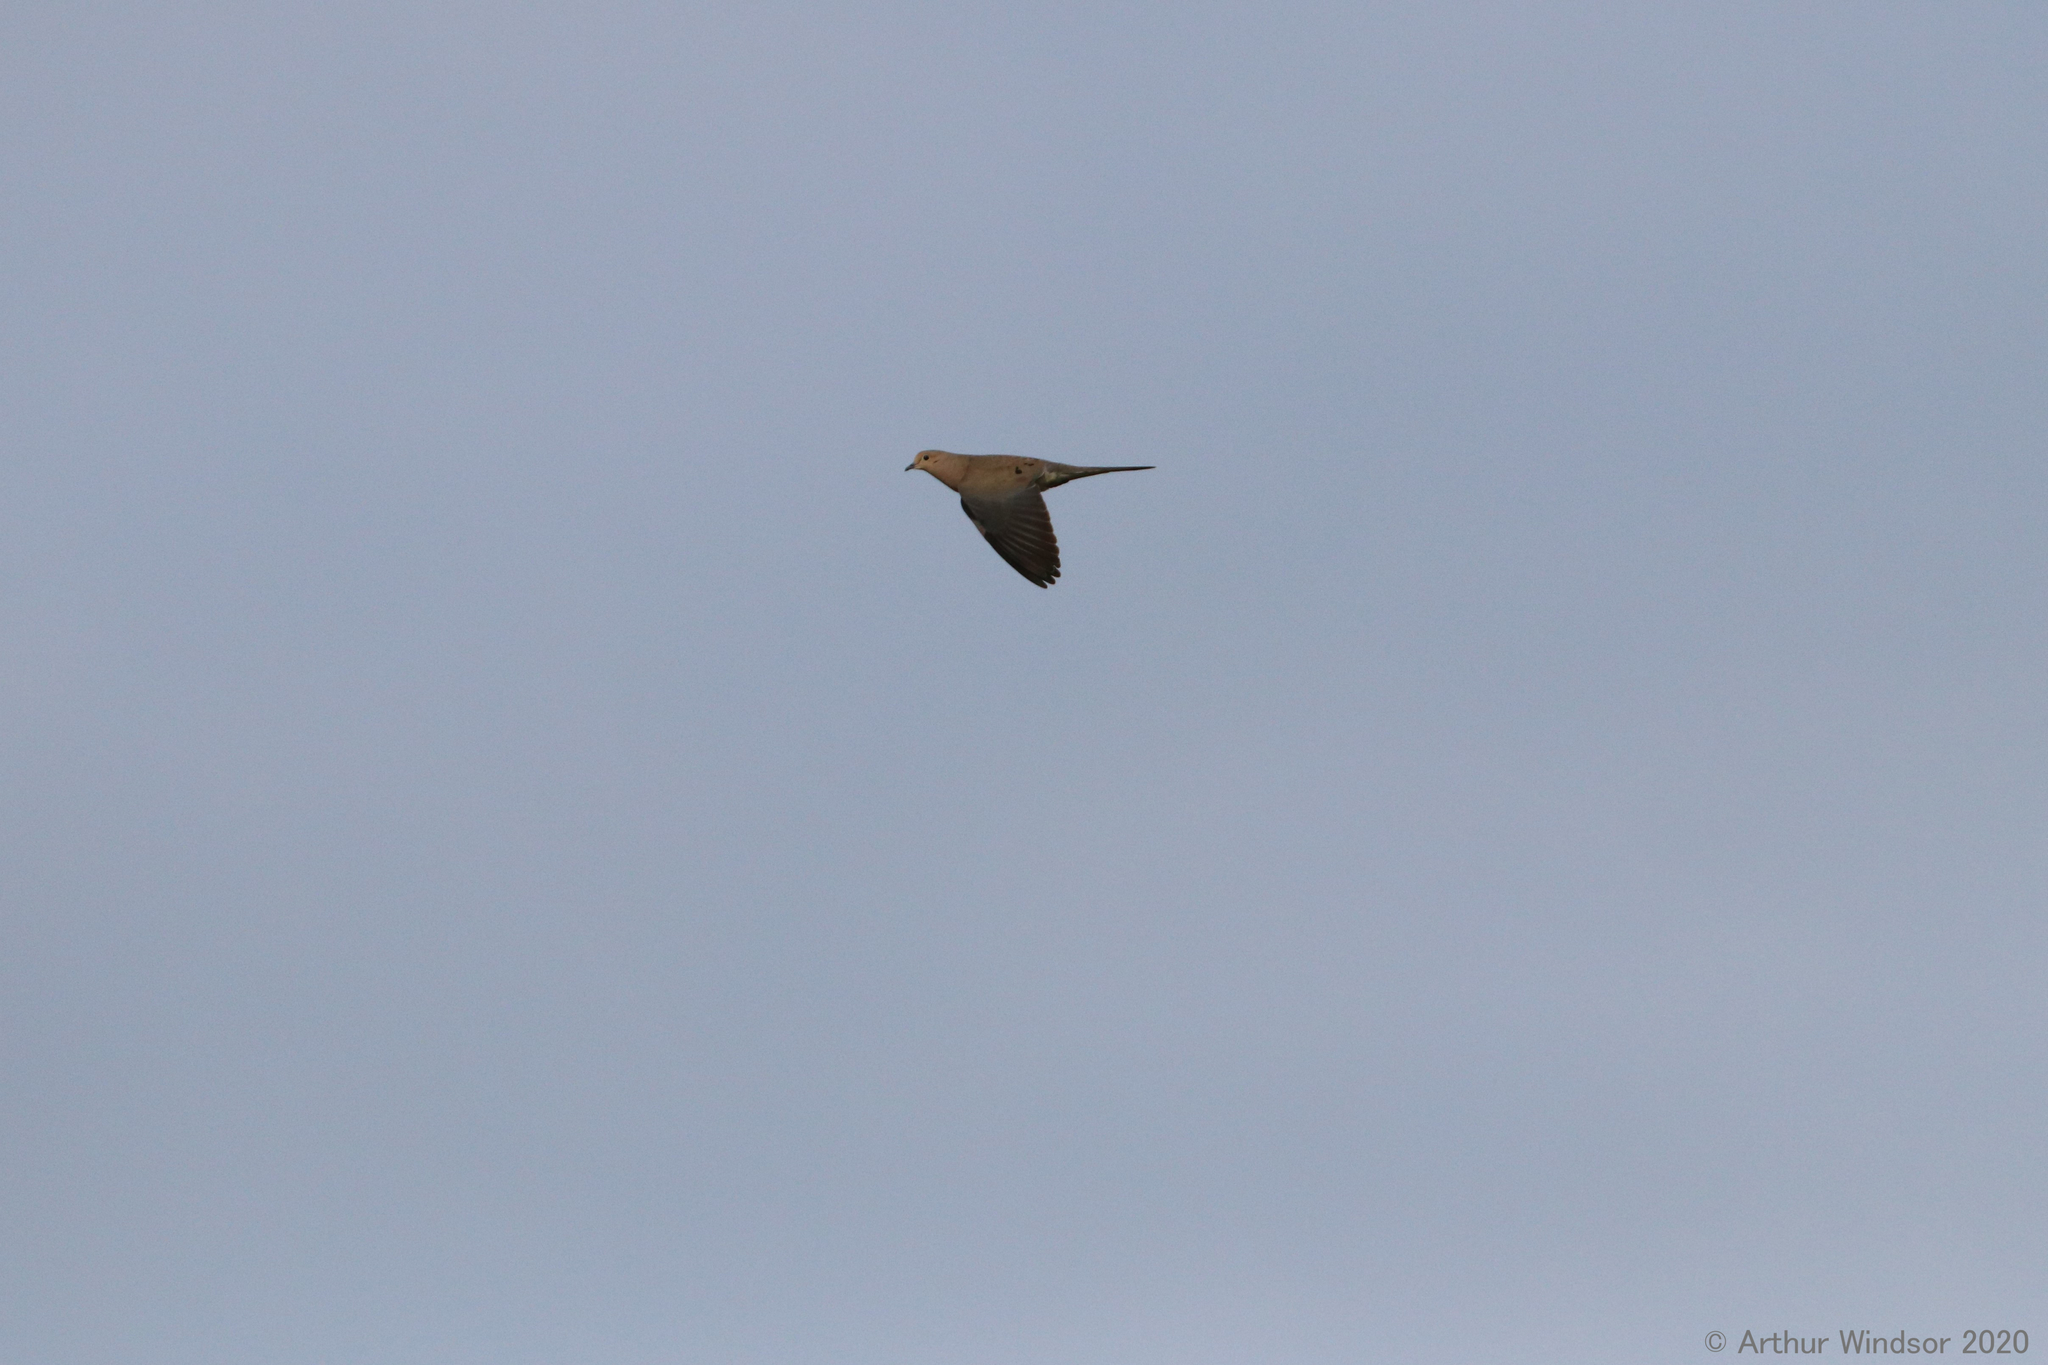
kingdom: Animalia
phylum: Chordata
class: Aves
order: Columbiformes
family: Columbidae
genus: Zenaida
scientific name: Zenaida macroura
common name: Mourning dove
